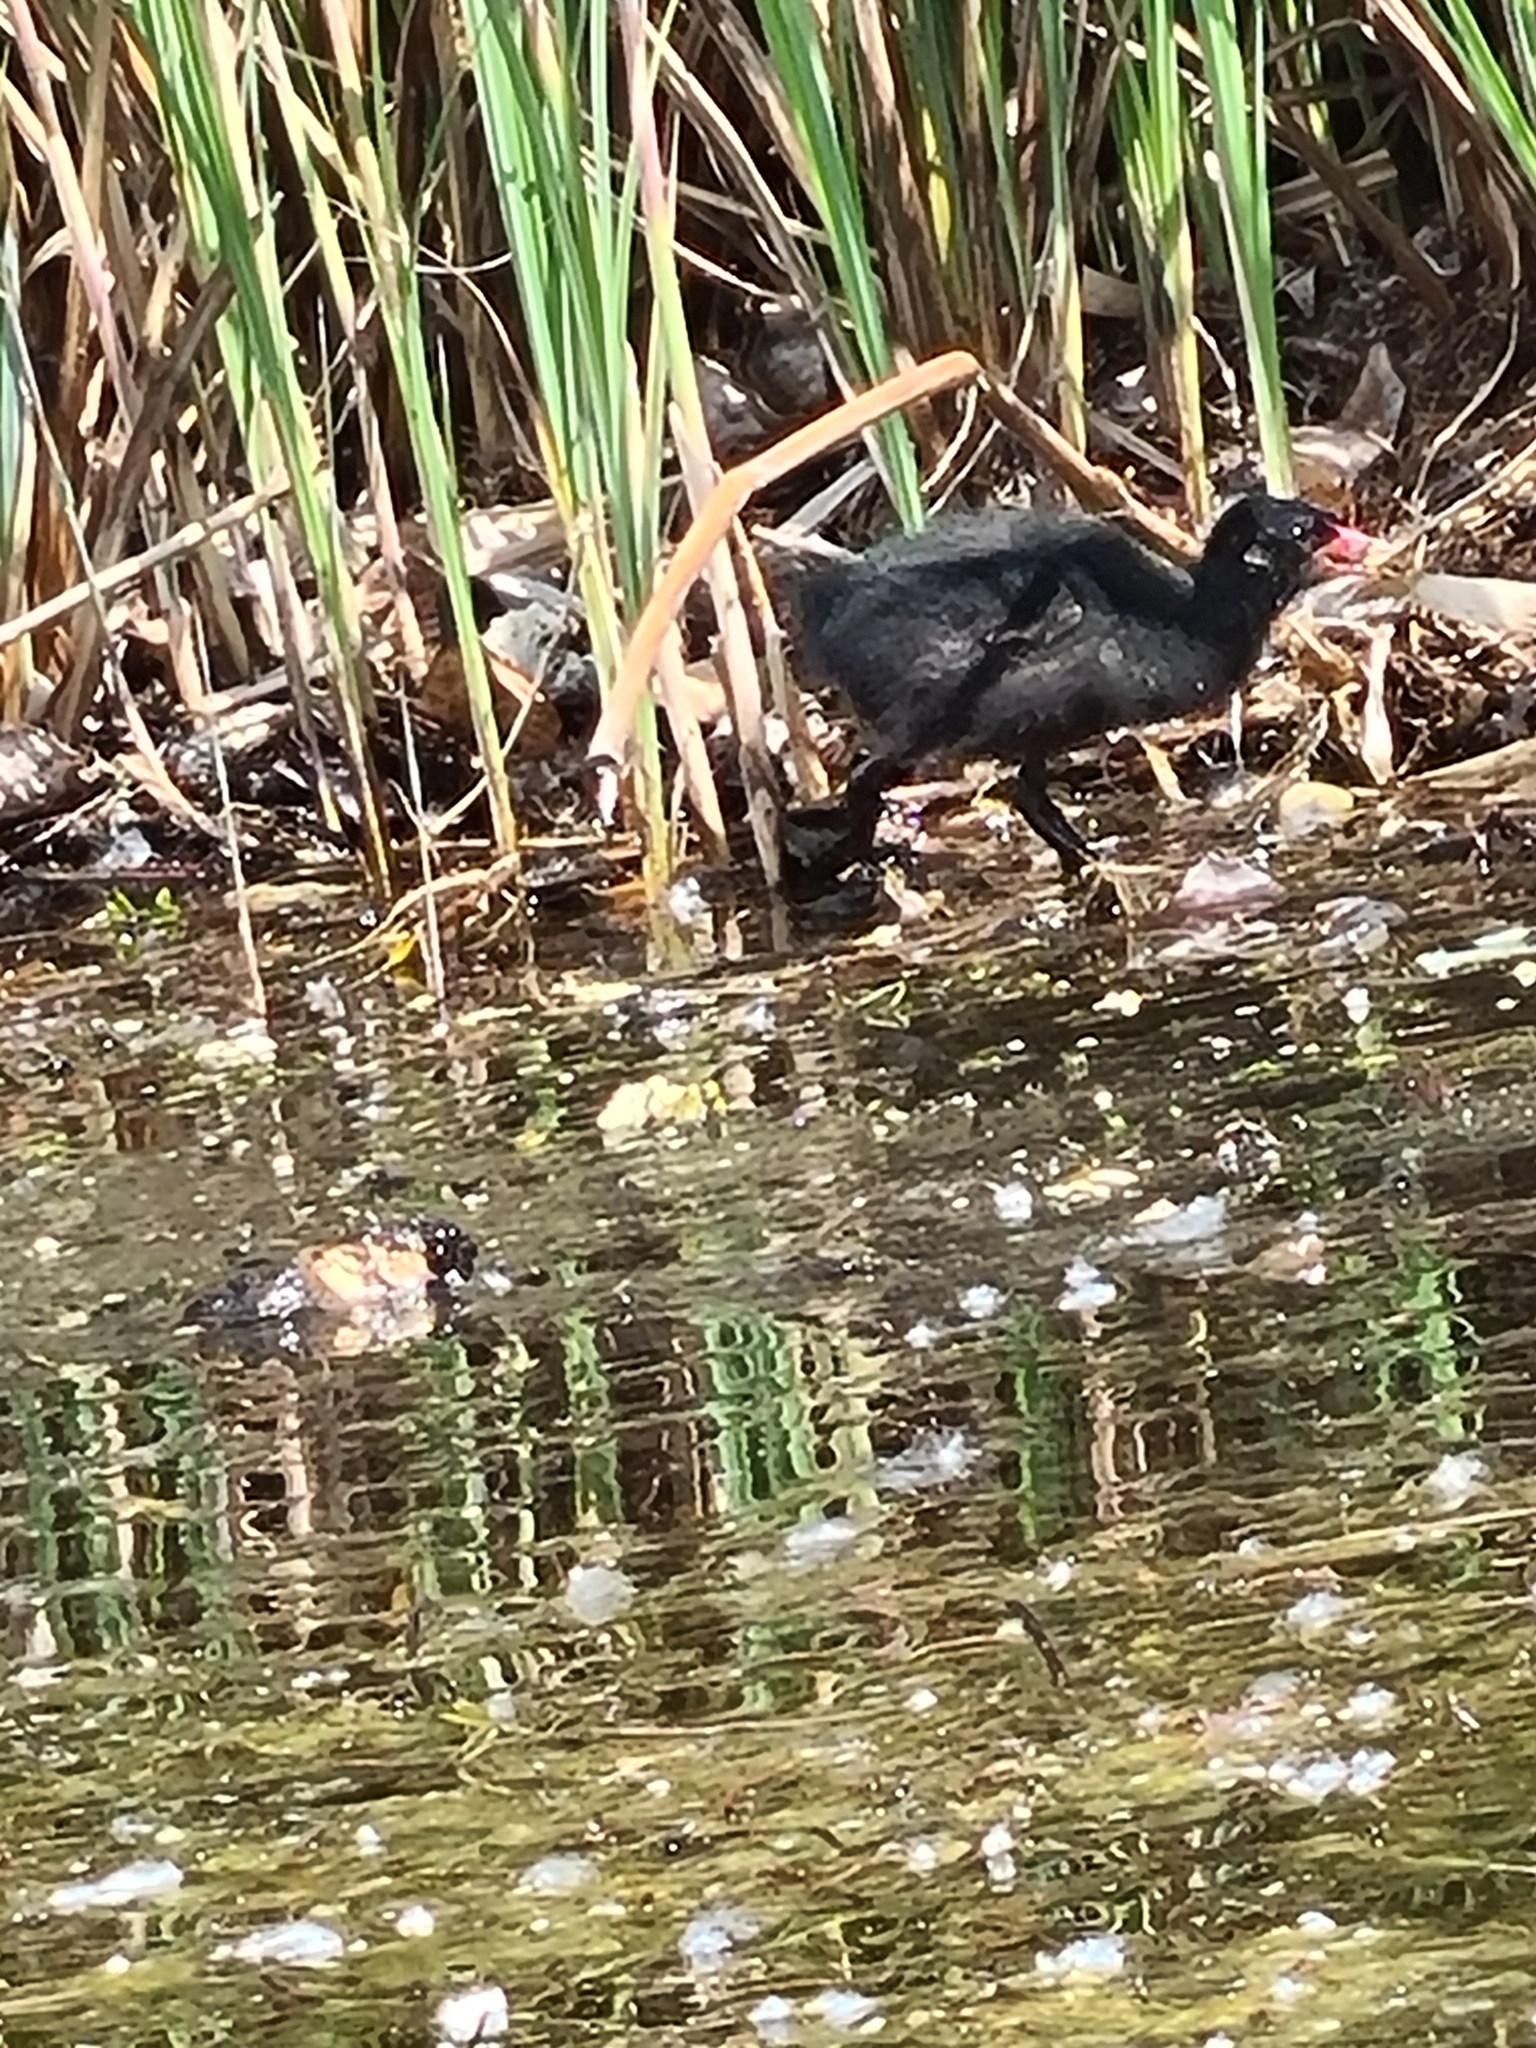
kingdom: Animalia
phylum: Chordata
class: Aves
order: Gruiformes
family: Rallidae
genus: Gallinula
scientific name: Gallinula chloropus
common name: Common moorhen
